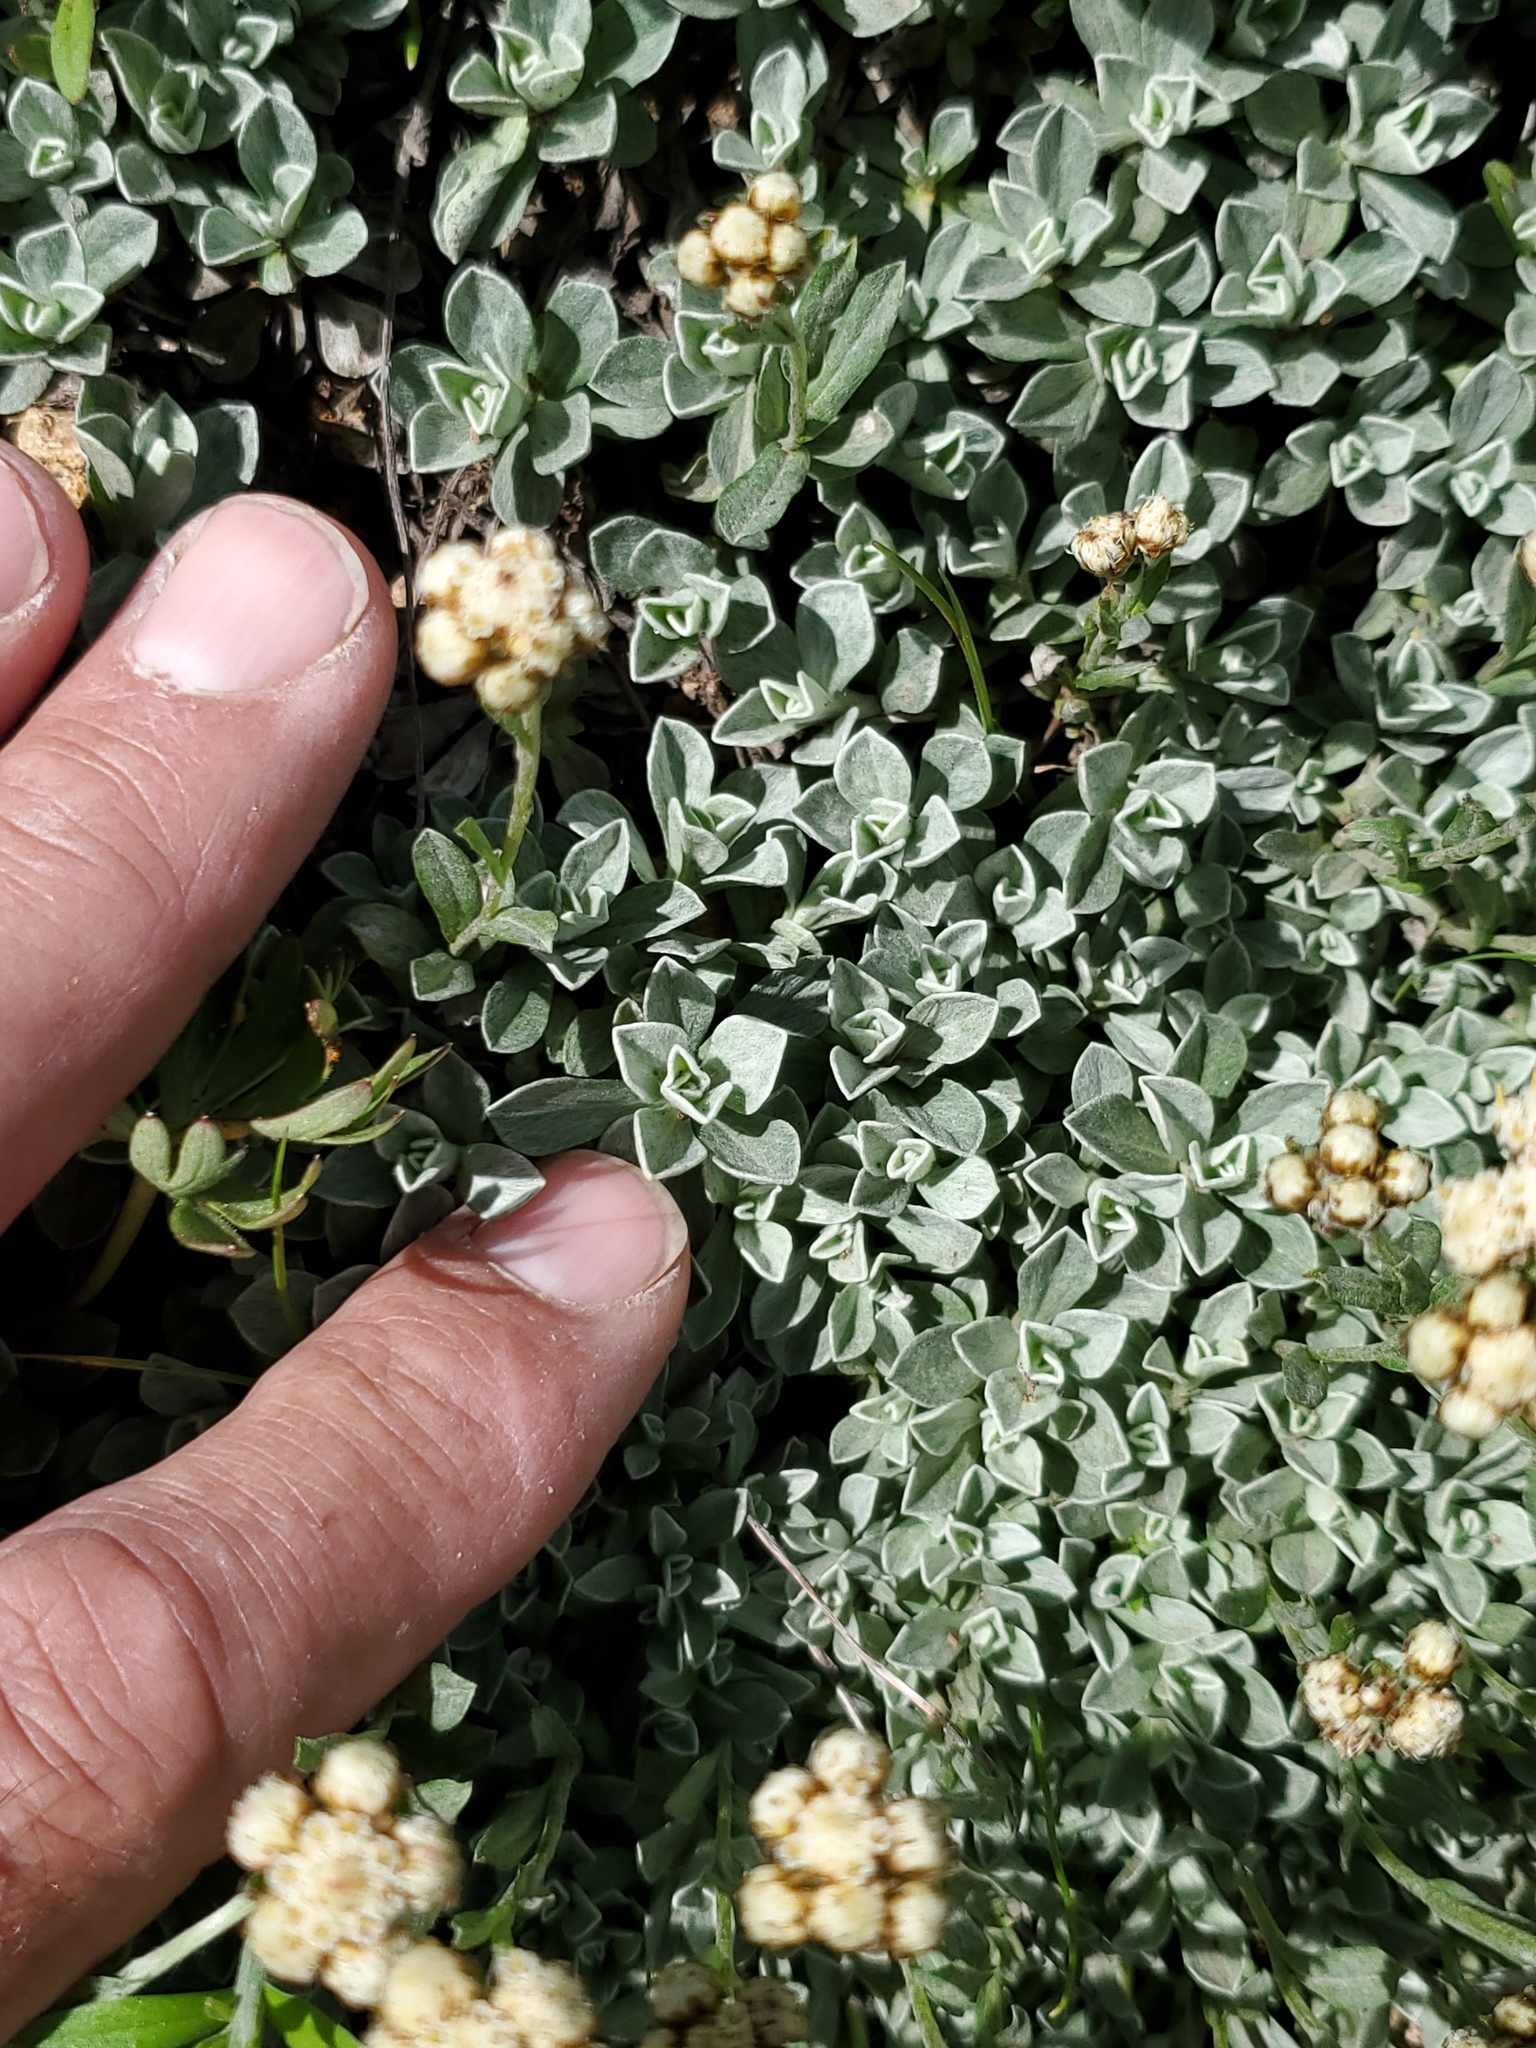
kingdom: Plantae
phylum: Tracheophyta
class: Magnoliopsida
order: Asterales
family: Asteraceae
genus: Antennaria
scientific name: Antennaria umbrinella
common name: Brown pussytoes
